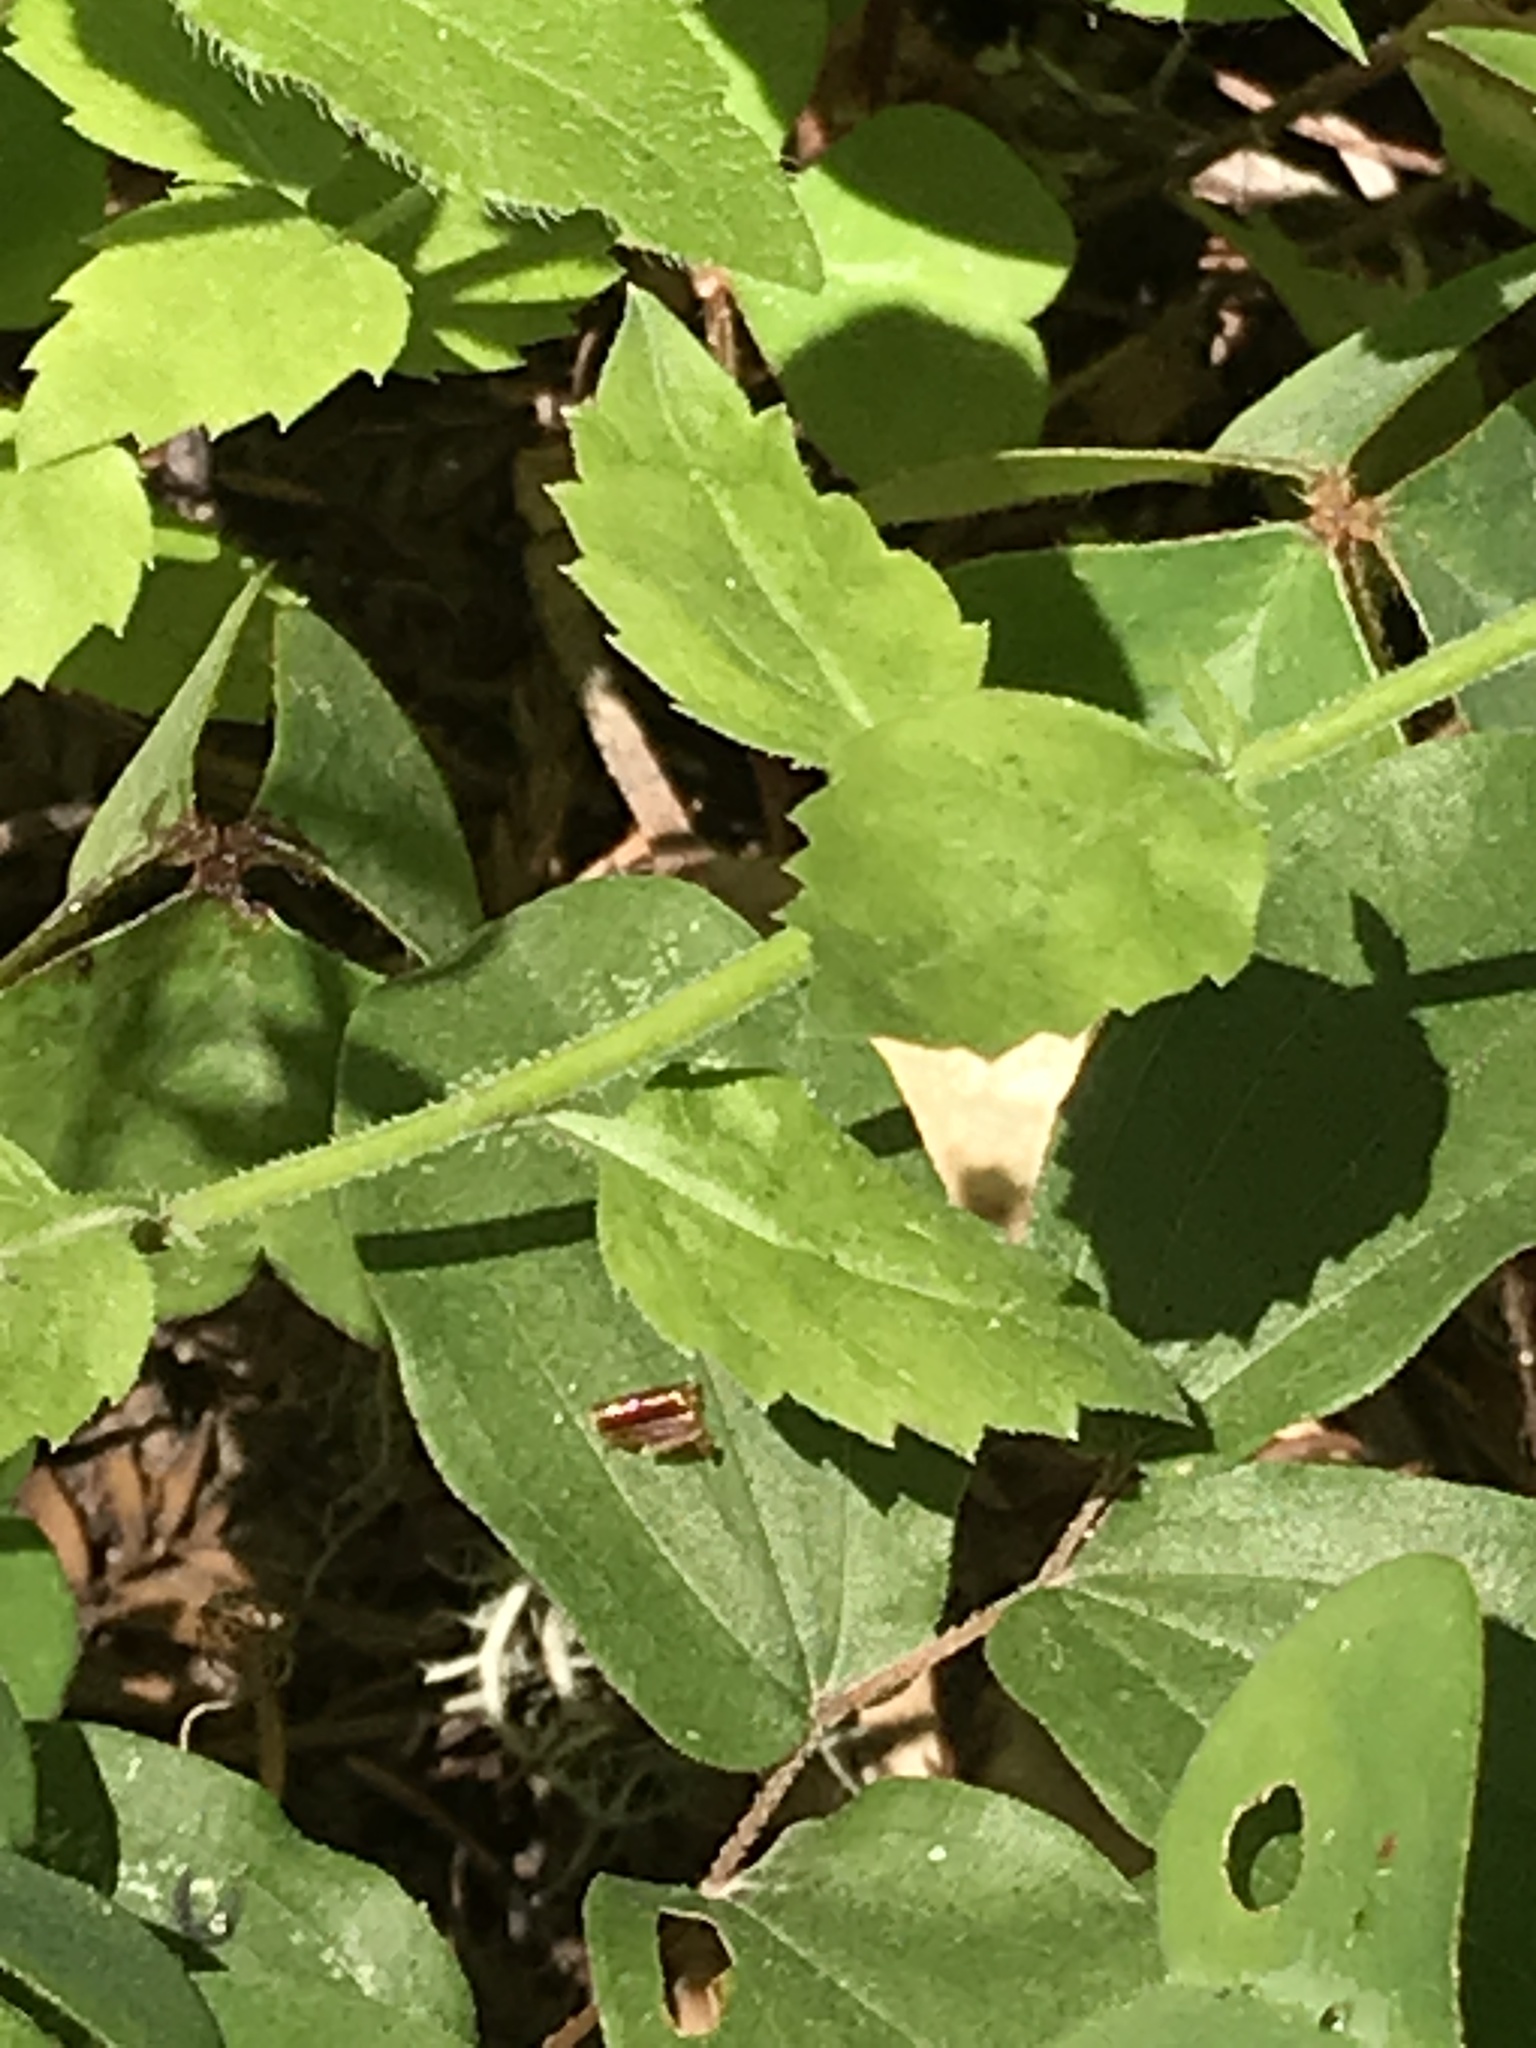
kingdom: Plantae
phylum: Tracheophyta
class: Magnoliopsida
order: Asterales
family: Campanulaceae
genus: Smithiastrum
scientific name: Smithiastrum prenanthoides
